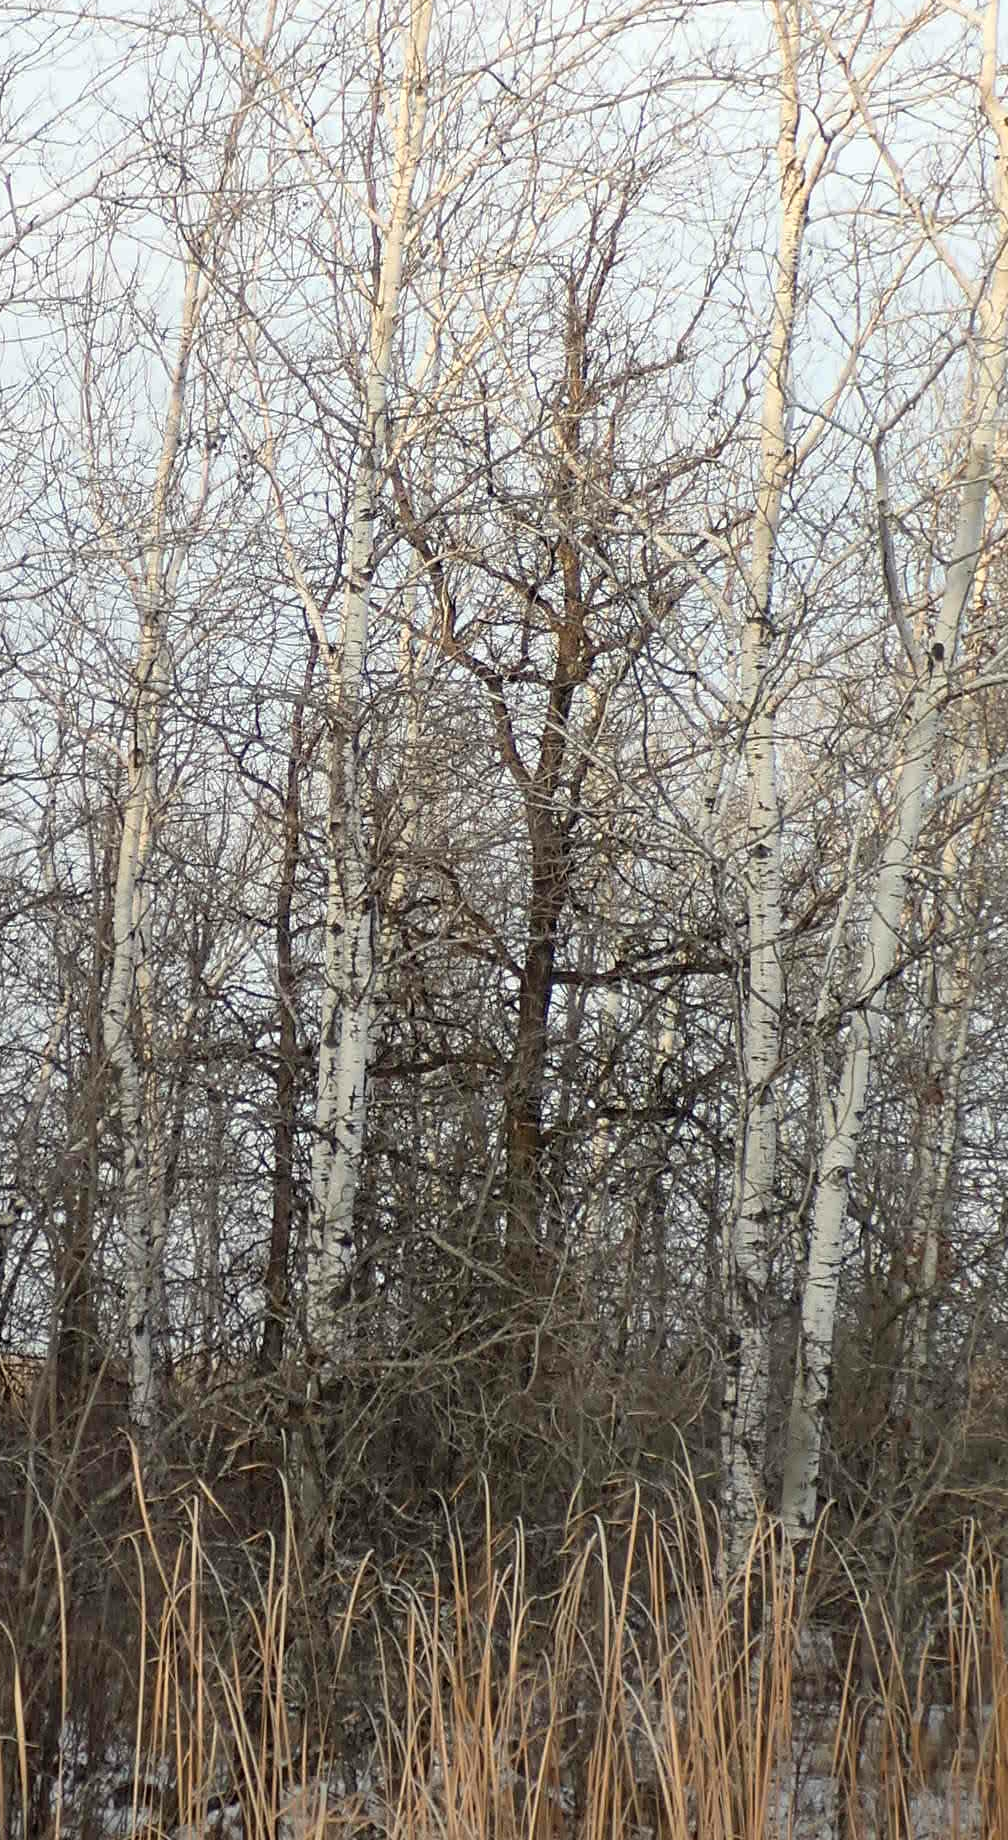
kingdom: Plantae
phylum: Tracheophyta
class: Magnoliopsida
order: Fagales
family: Fagaceae
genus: Quercus
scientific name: Quercus macrocarpa
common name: Bur oak
